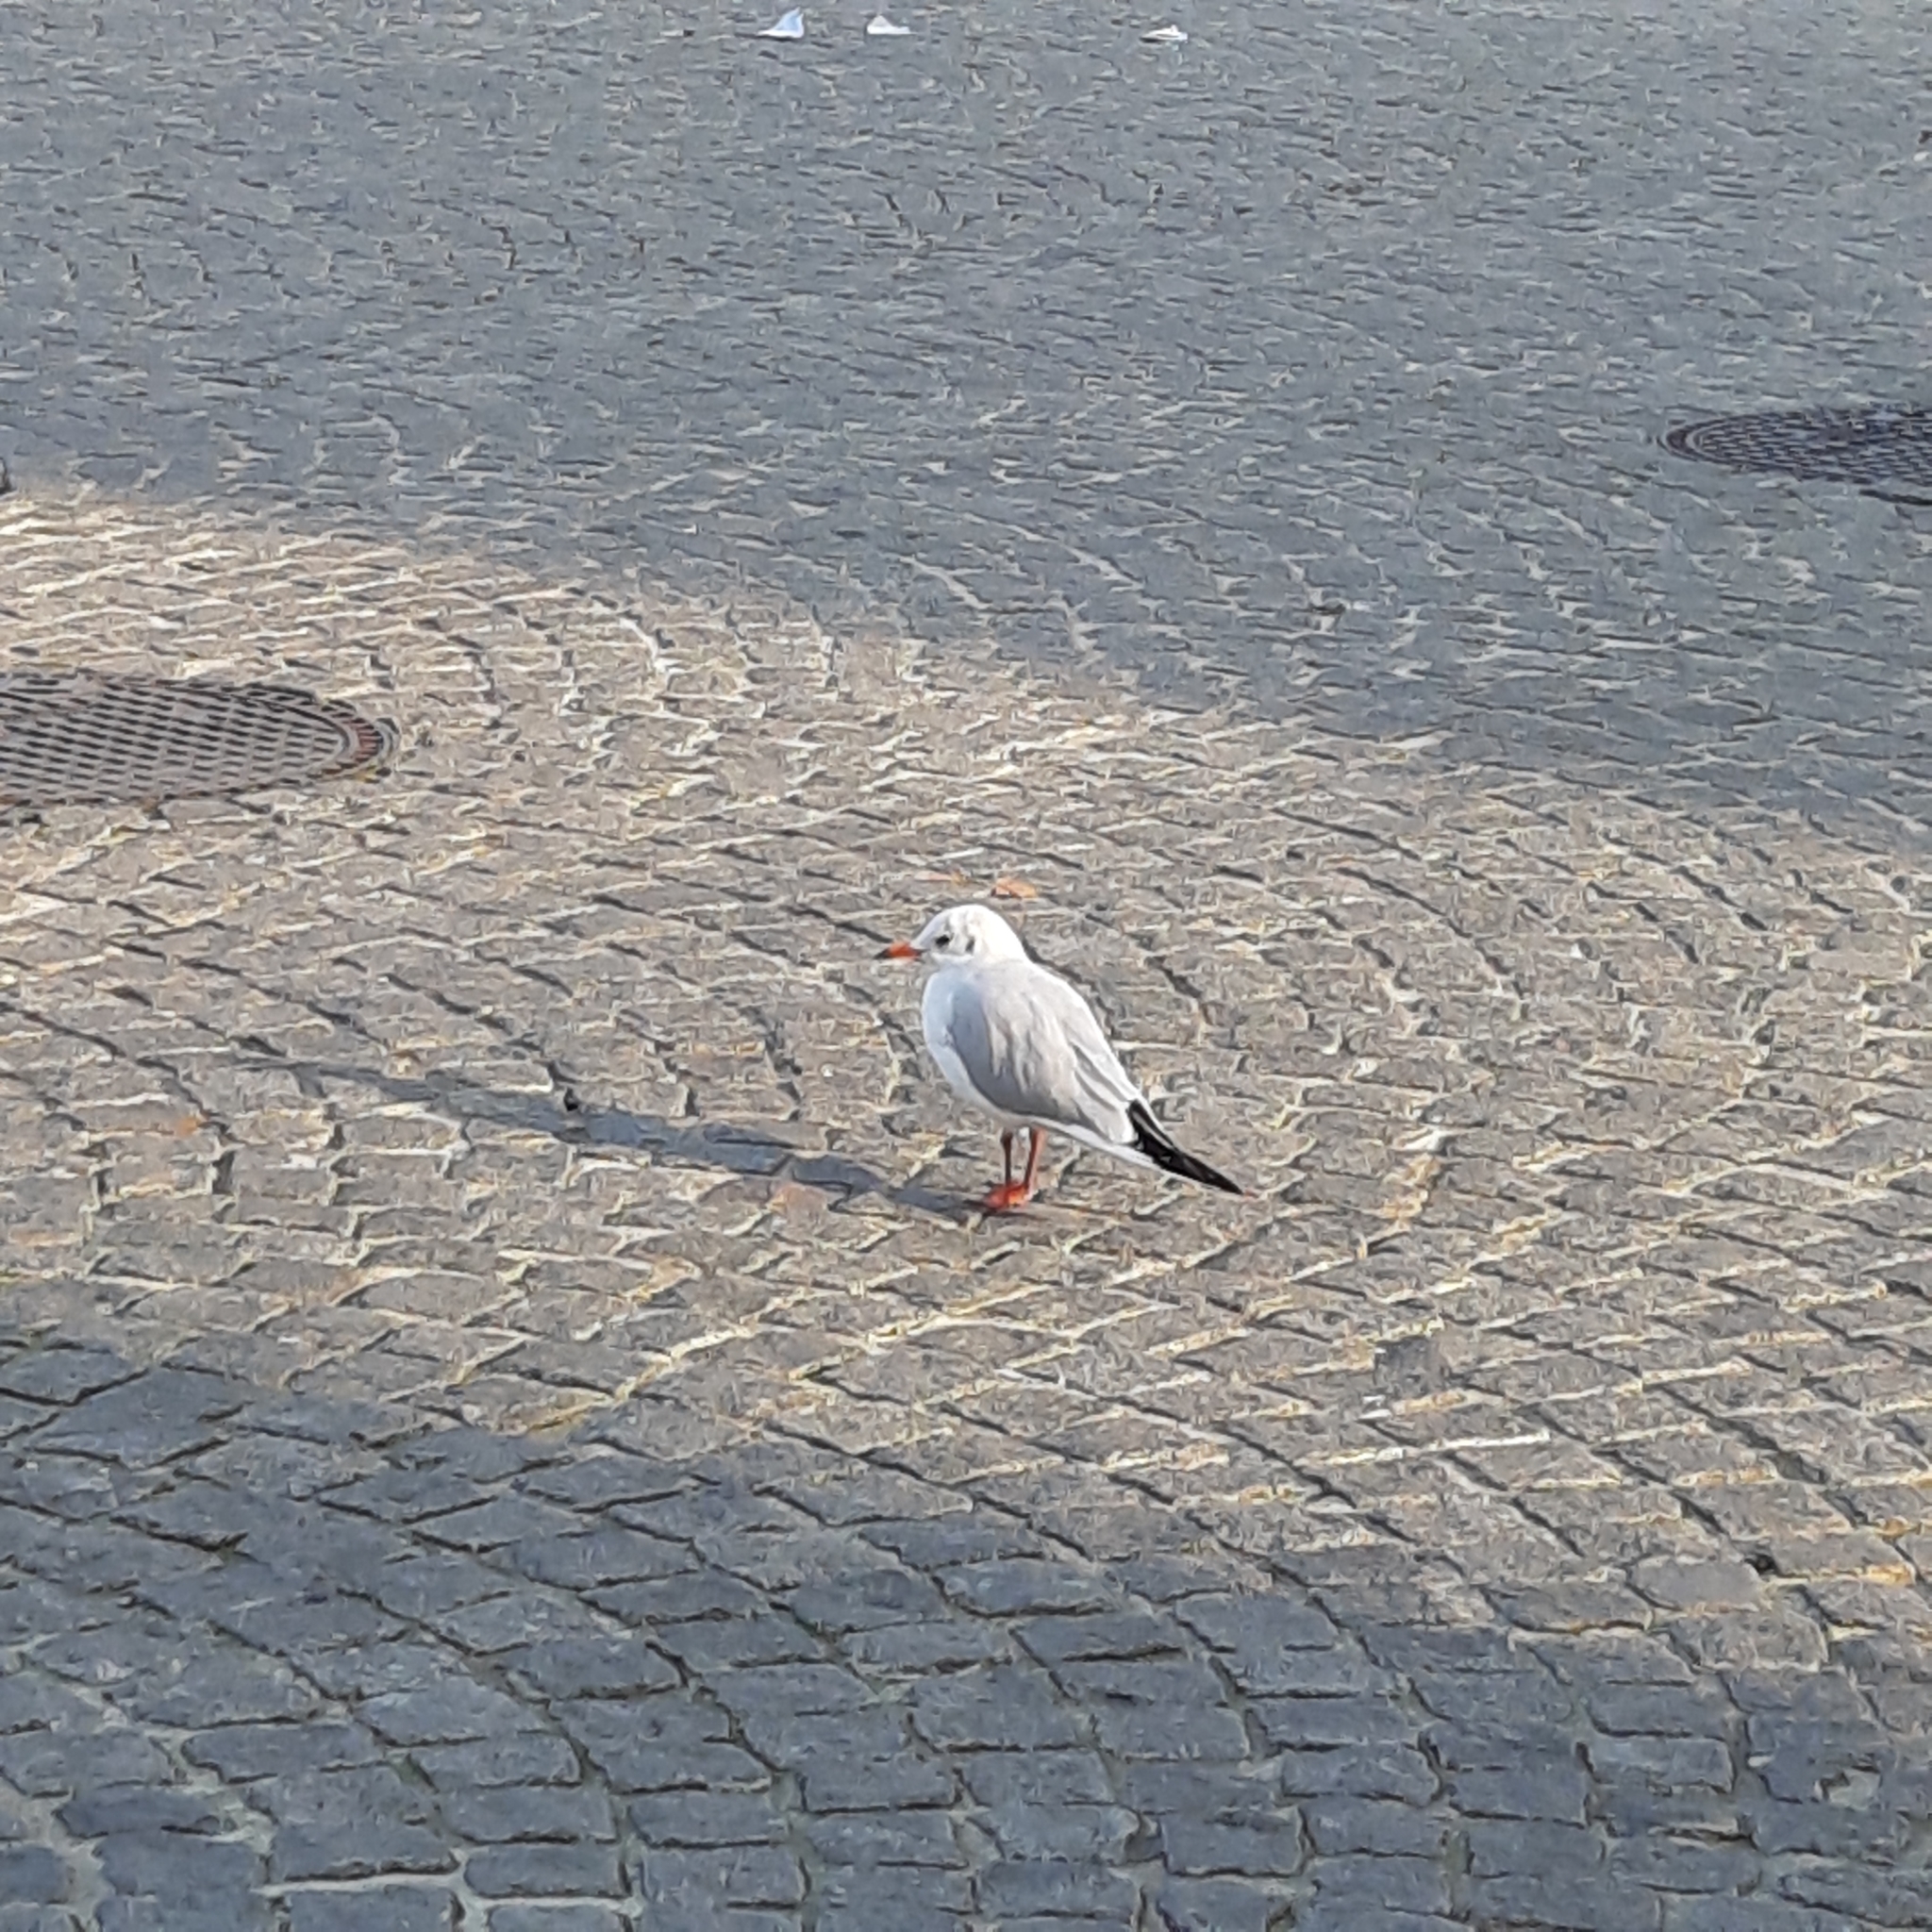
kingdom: Animalia
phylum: Chordata
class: Aves
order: Charadriiformes
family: Laridae
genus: Chroicocephalus
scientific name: Chroicocephalus ridibundus
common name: Black-headed gull
